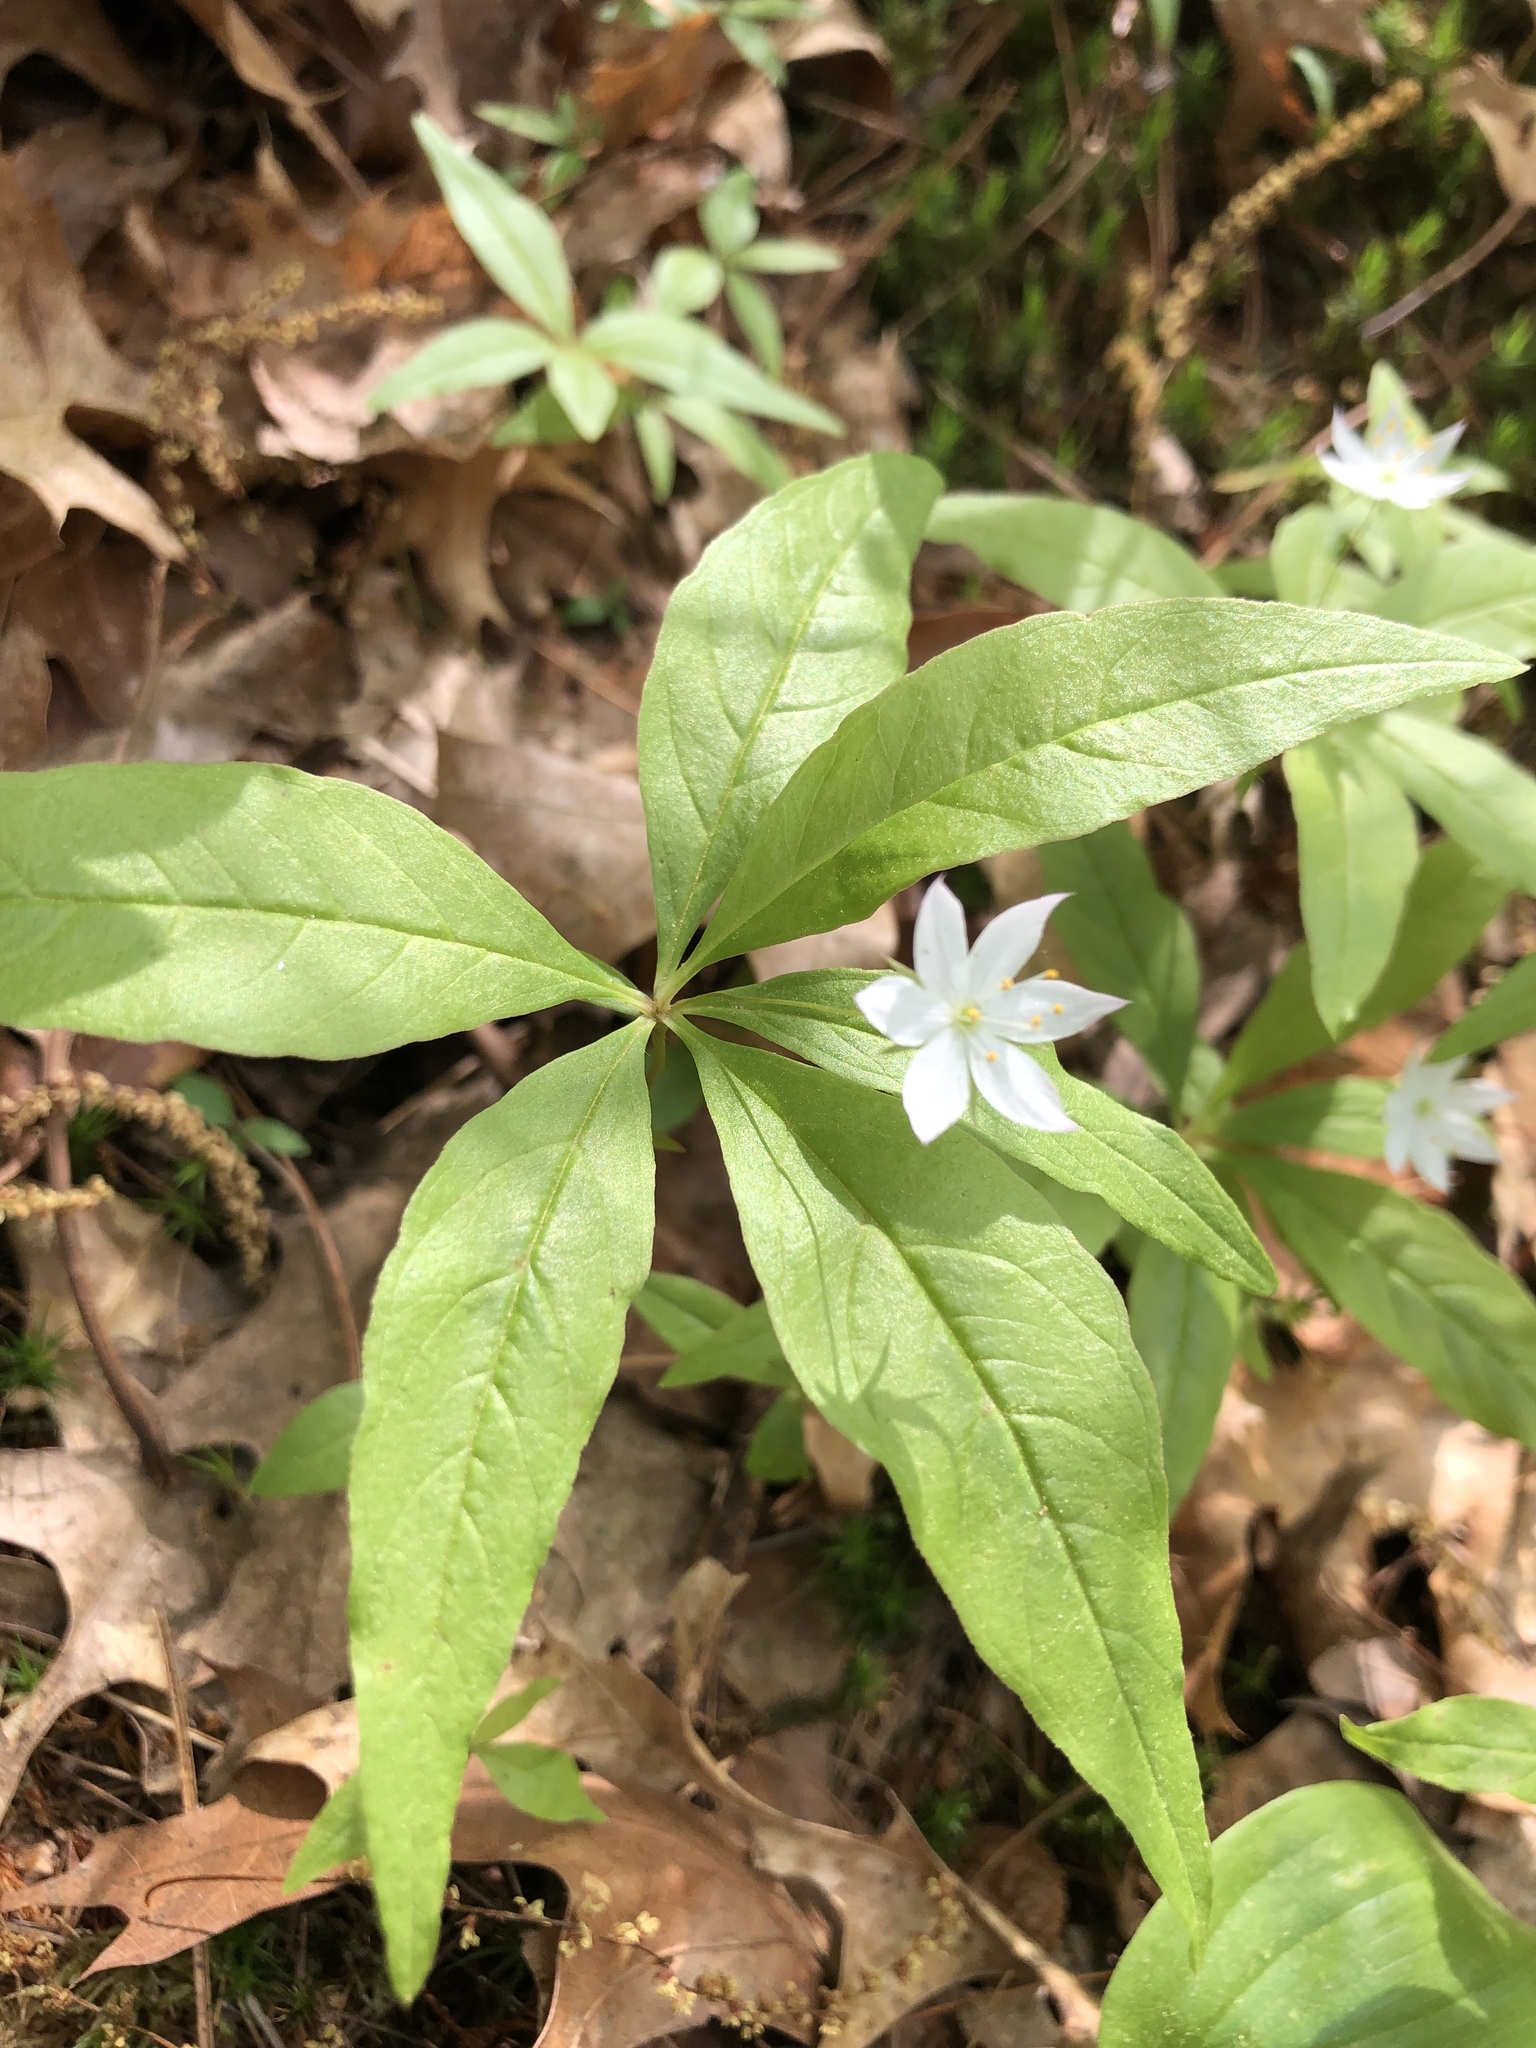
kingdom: Plantae
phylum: Tracheophyta
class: Magnoliopsida
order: Ericales
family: Primulaceae
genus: Lysimachia
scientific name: Lysimachia borealis
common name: American starflower
